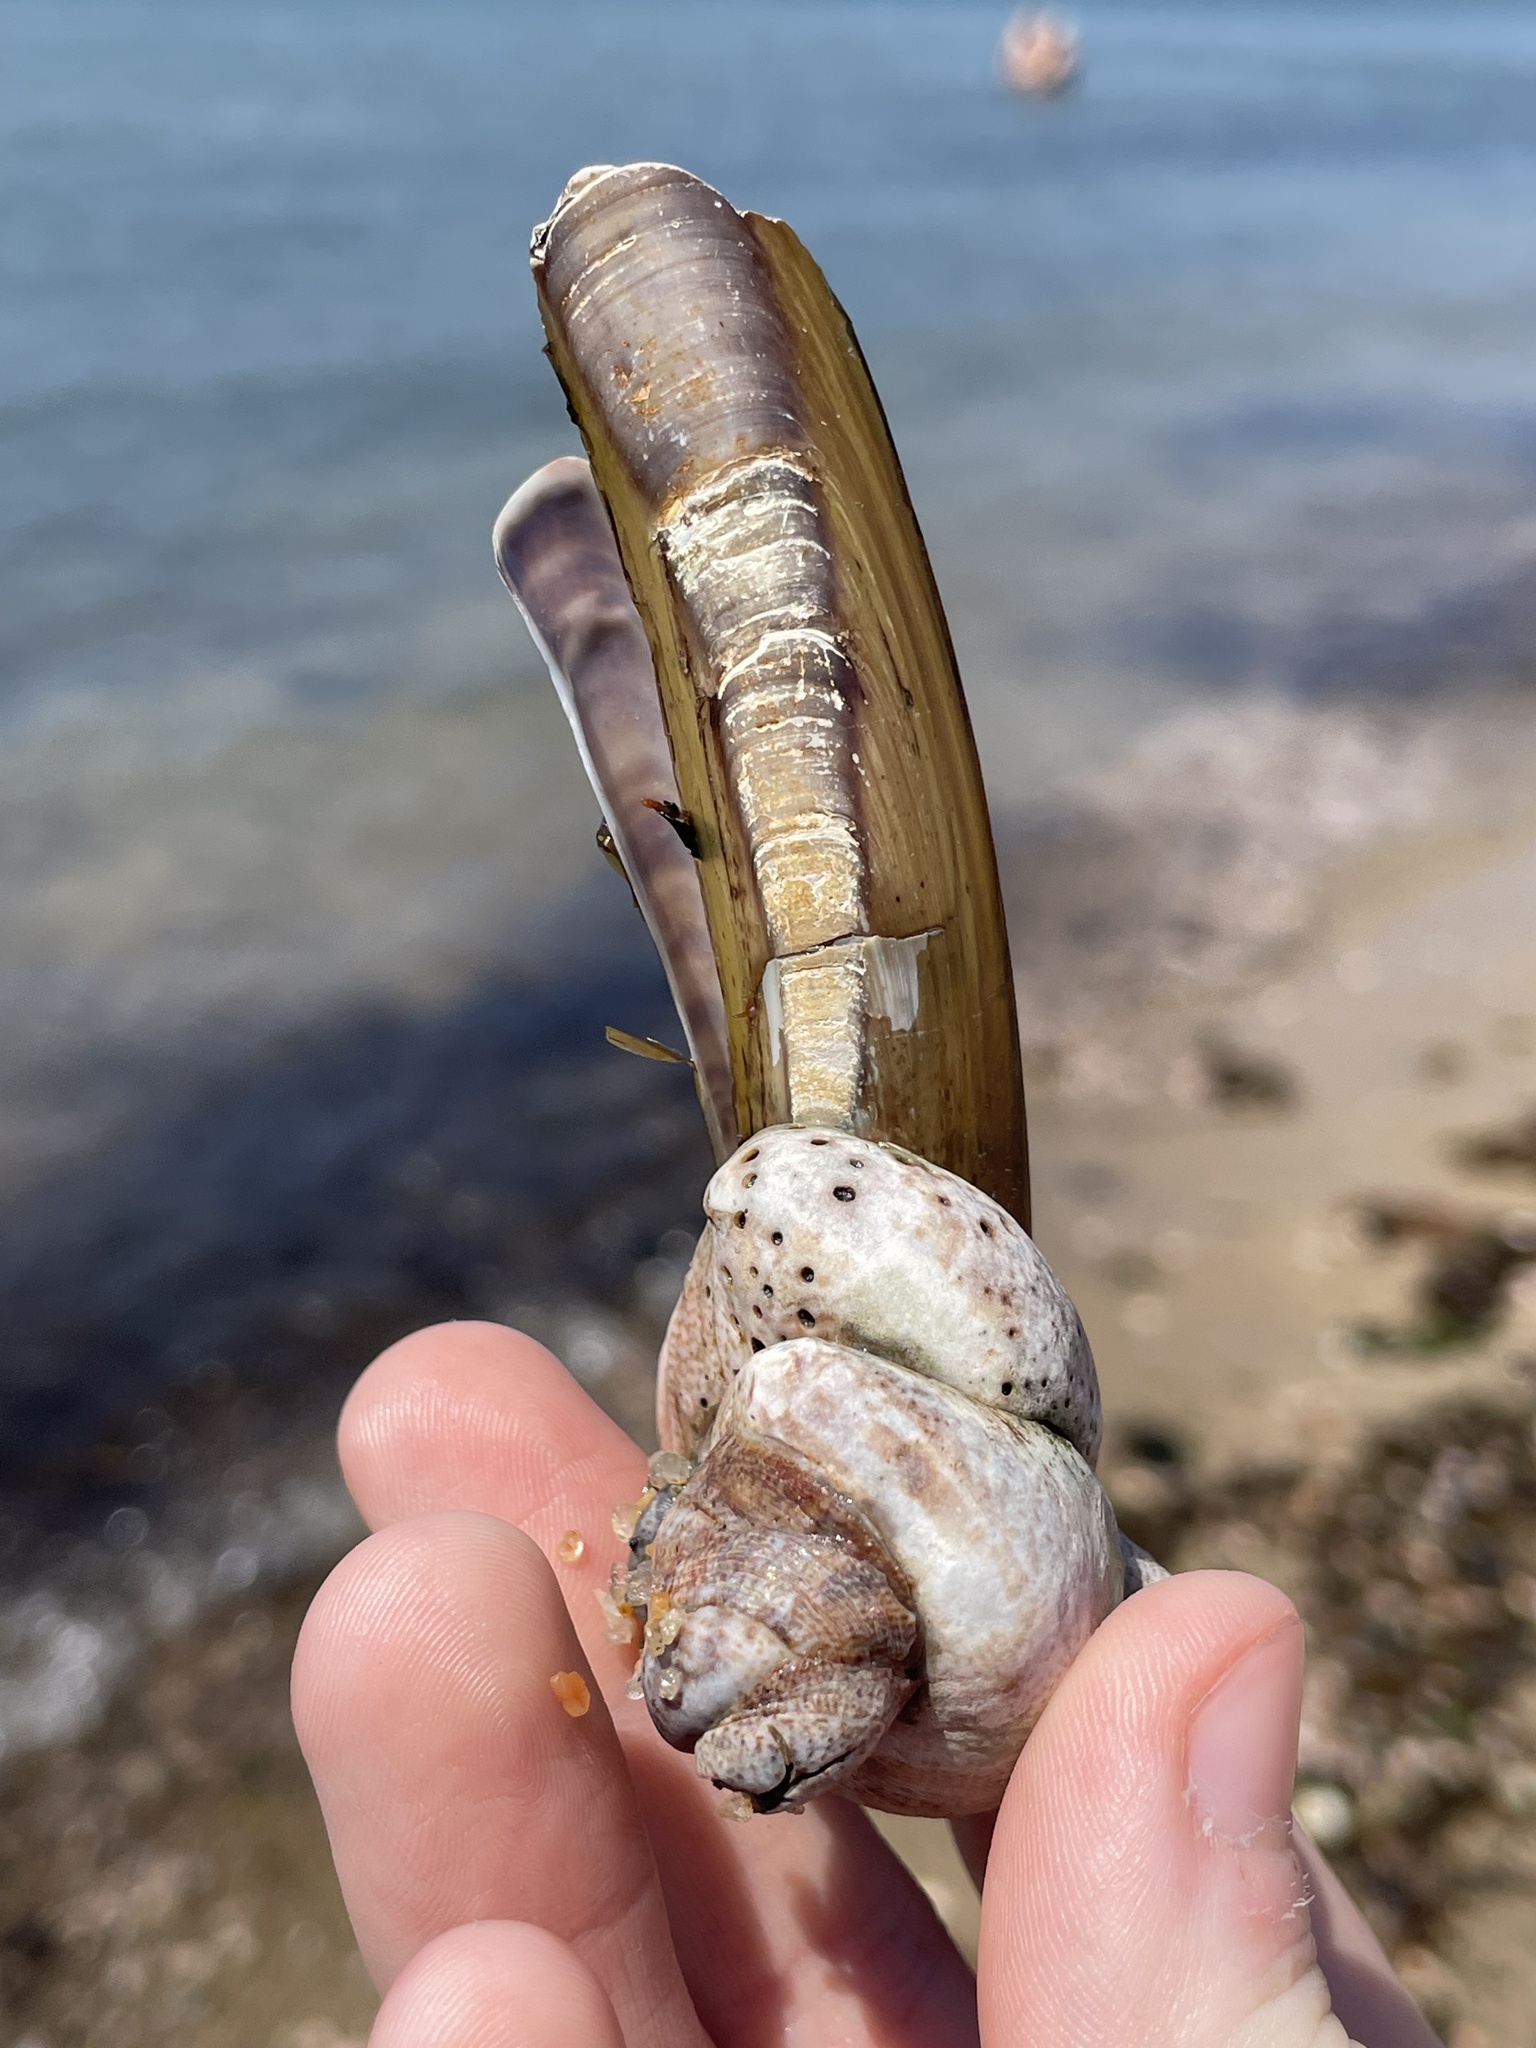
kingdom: Animalia
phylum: Mollusca
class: Bivalvia
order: Adapedonta
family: Pharidae
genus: Ensis
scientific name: Ensis leei
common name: American jack knife clam
